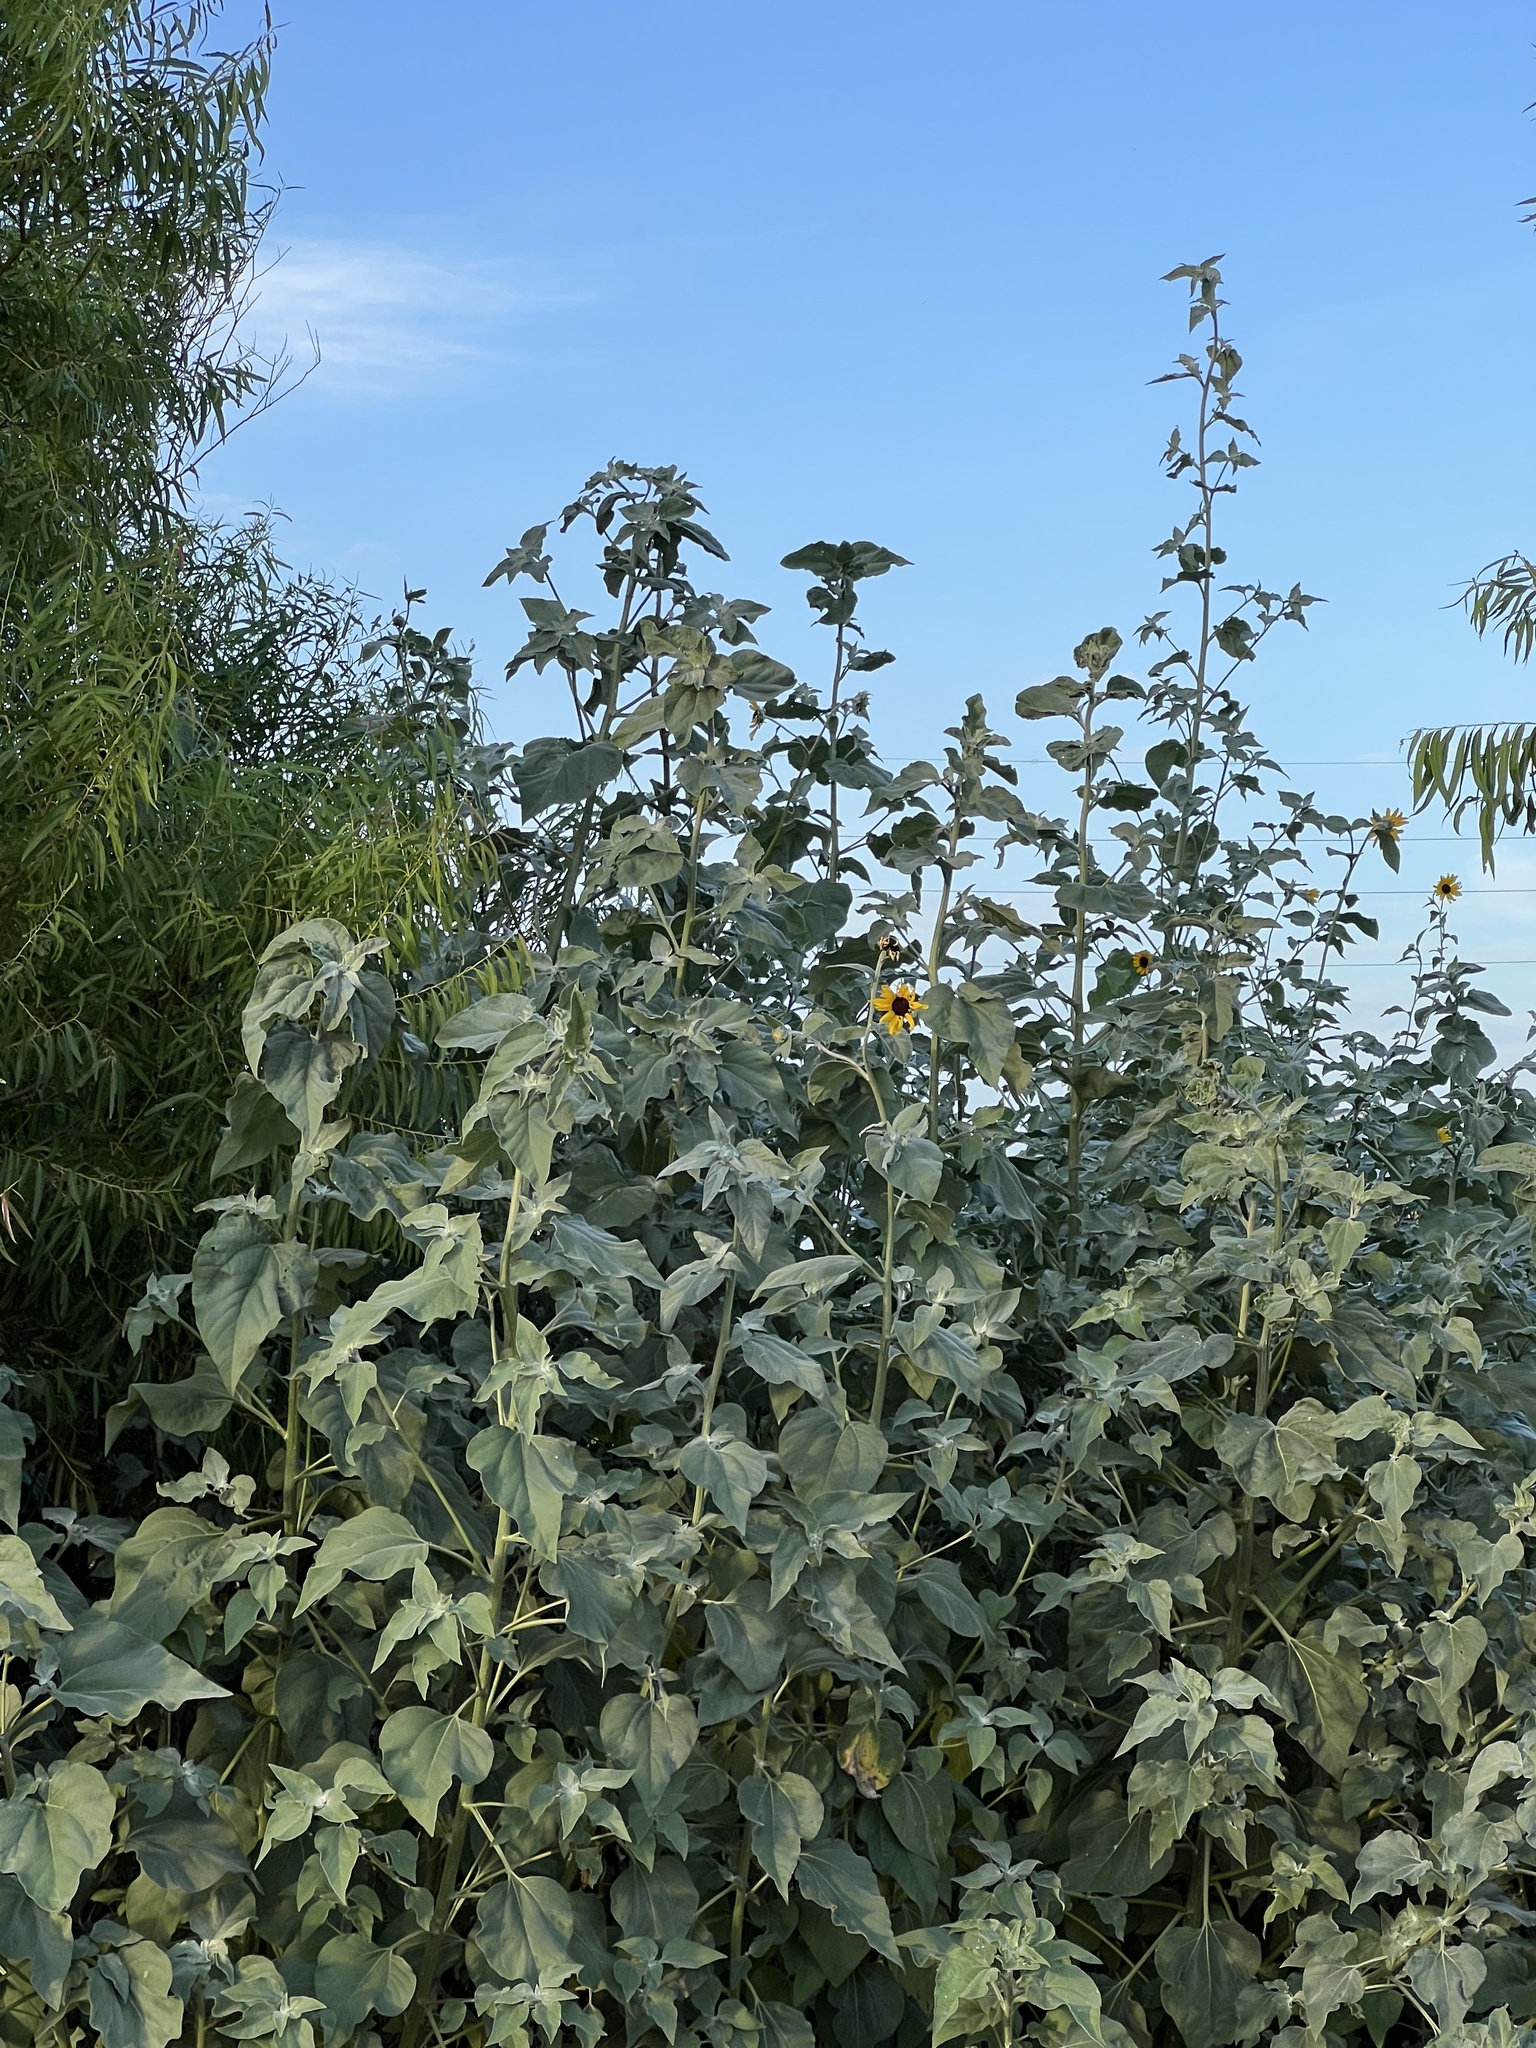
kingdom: Plantae
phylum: Tracheophyta
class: Magnoliopsida
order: Asterales
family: Asteraceae
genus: Helianthus
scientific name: Helianthus argophyllus
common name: Silverleaf sunflower
